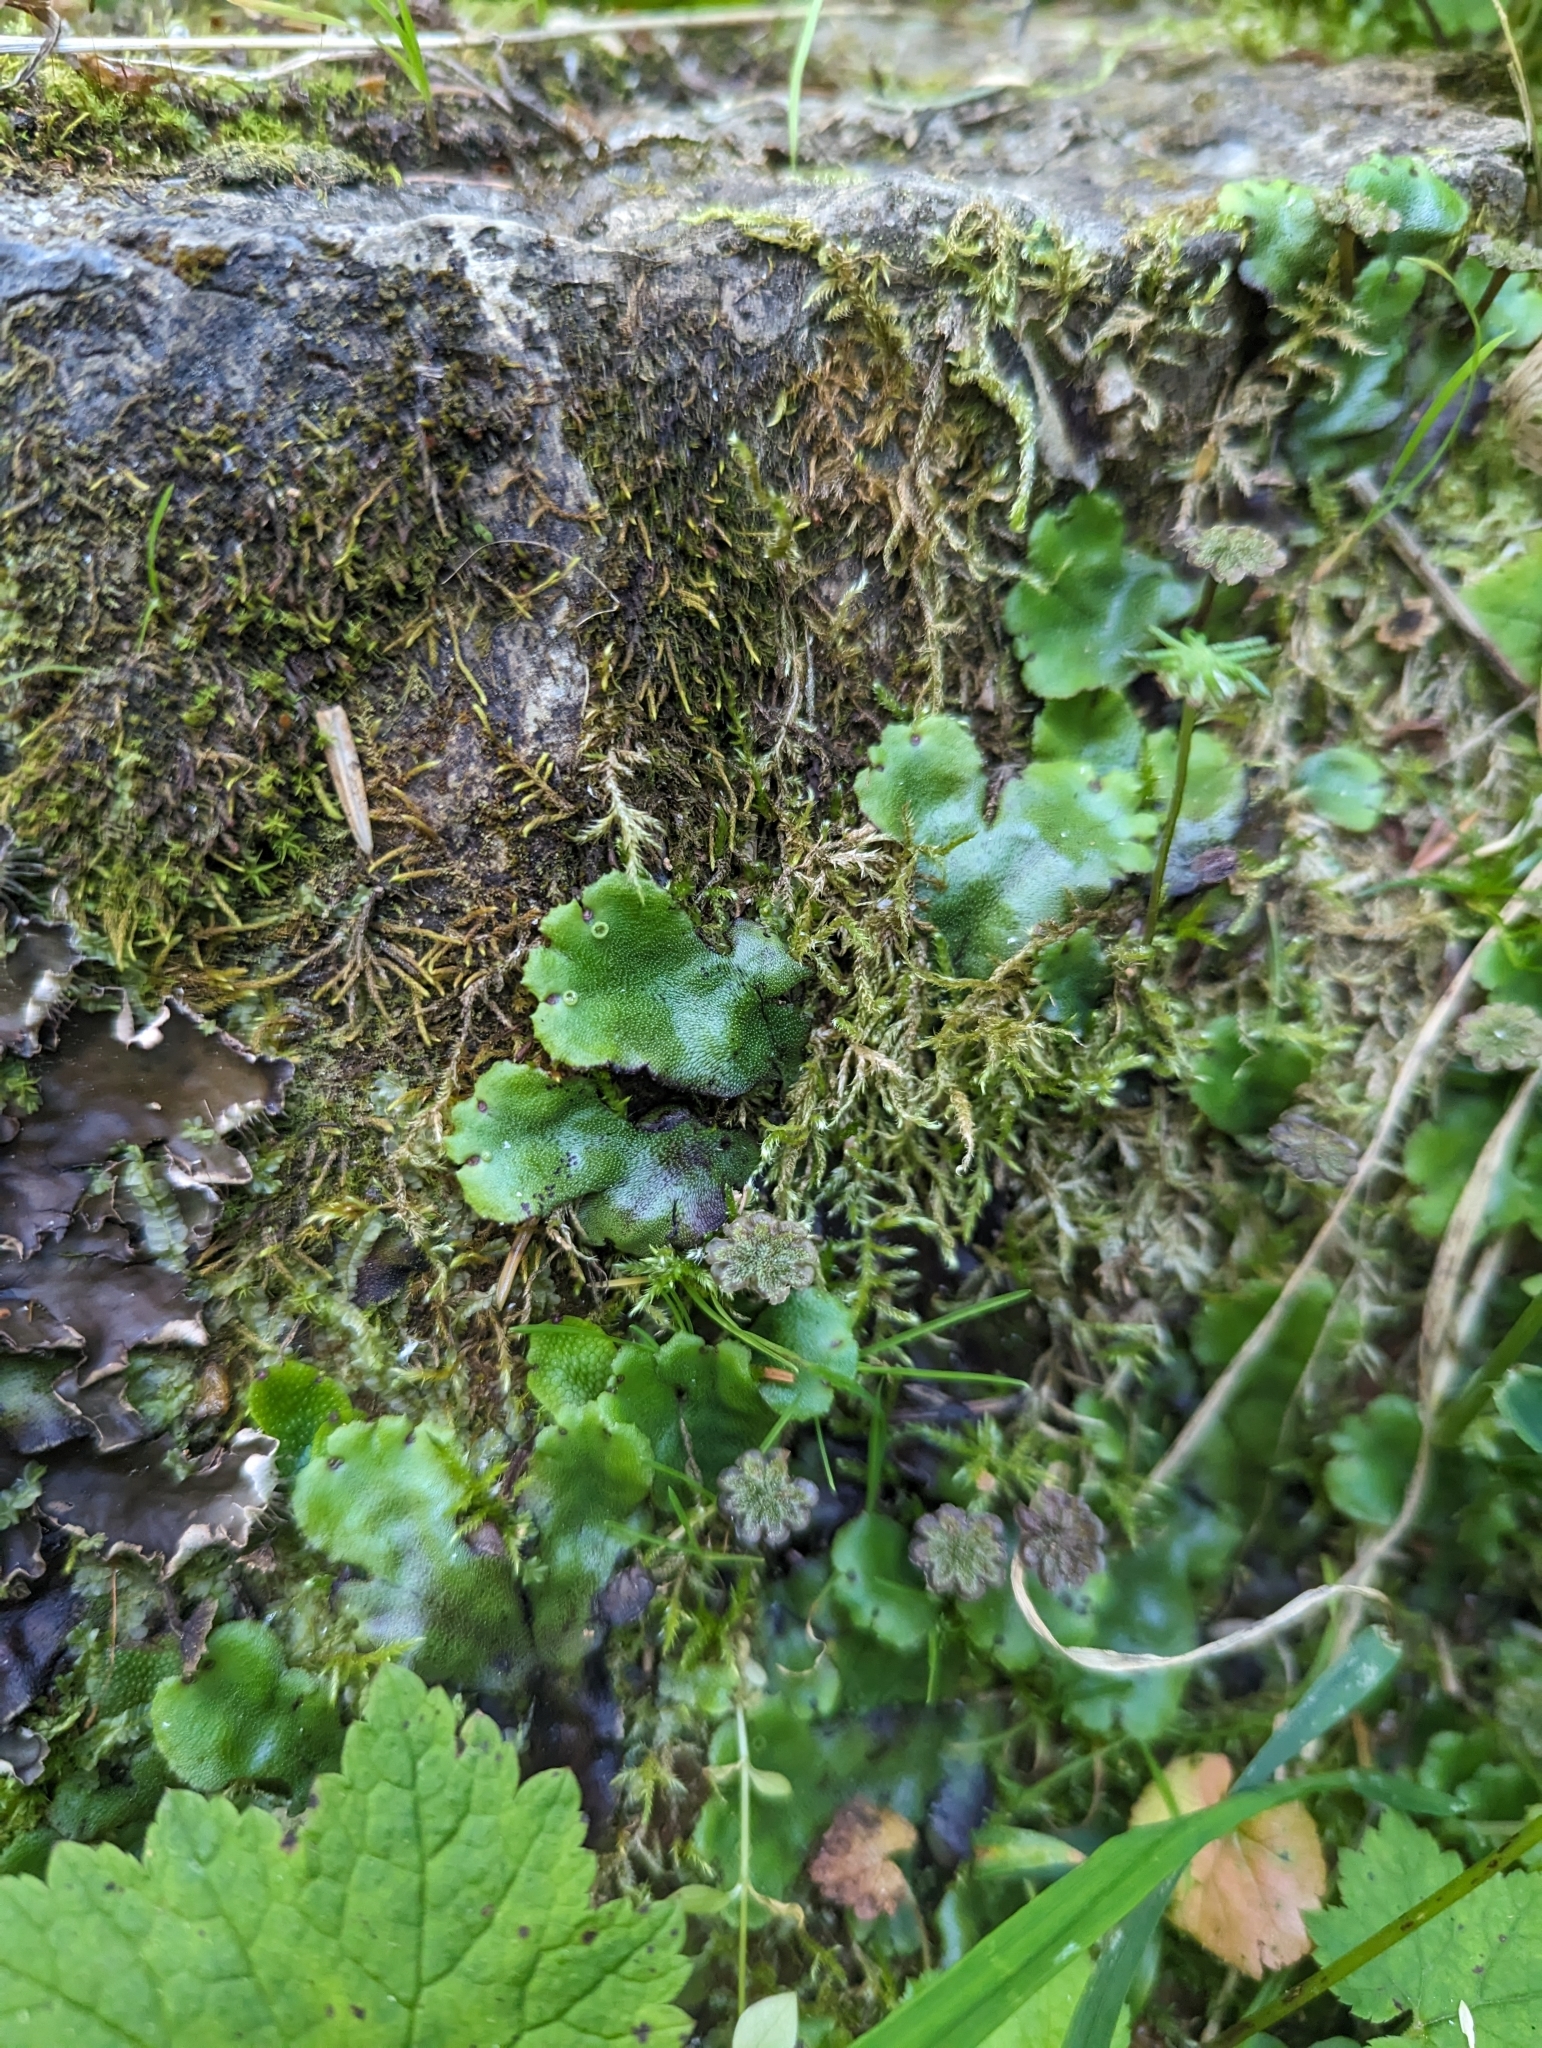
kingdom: Plantae
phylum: Marchantiophyta
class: Marchantiopsida
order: Marchantiales
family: Marchantiaceae
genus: Marchantia
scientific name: Marchantia polymorpha
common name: Common liverwort
